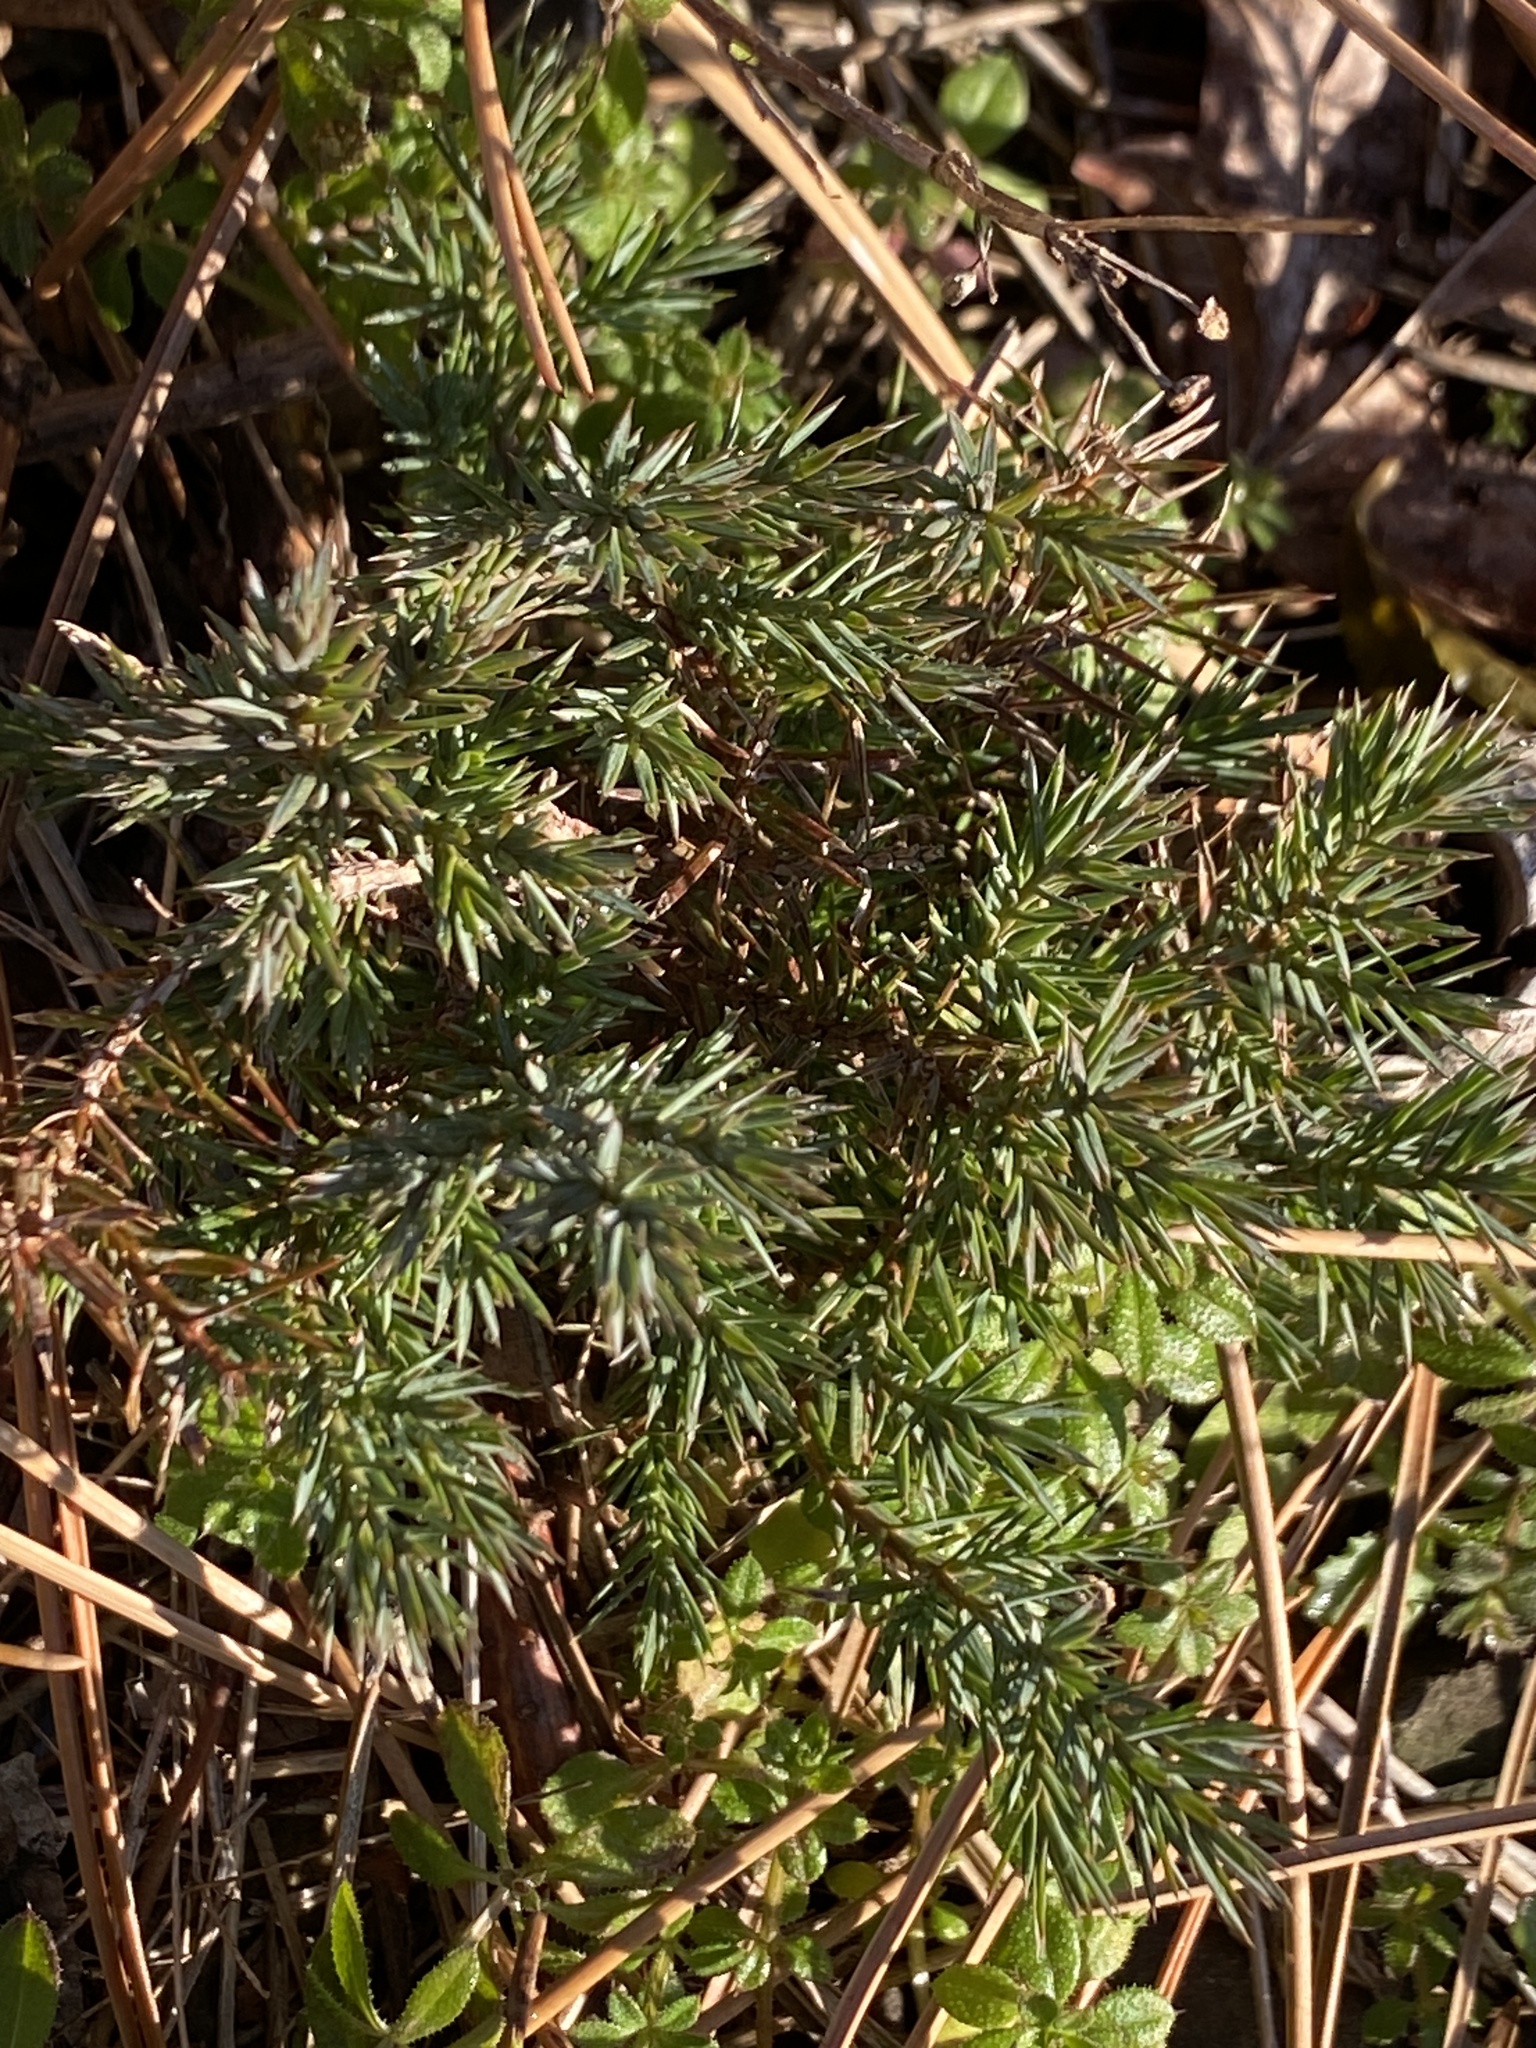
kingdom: Plantae
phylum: Tracheophyta
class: Pinopsida
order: Pinales
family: Cupressaceae
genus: Juniperus
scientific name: Juniperus virginiana
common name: Red juniper
